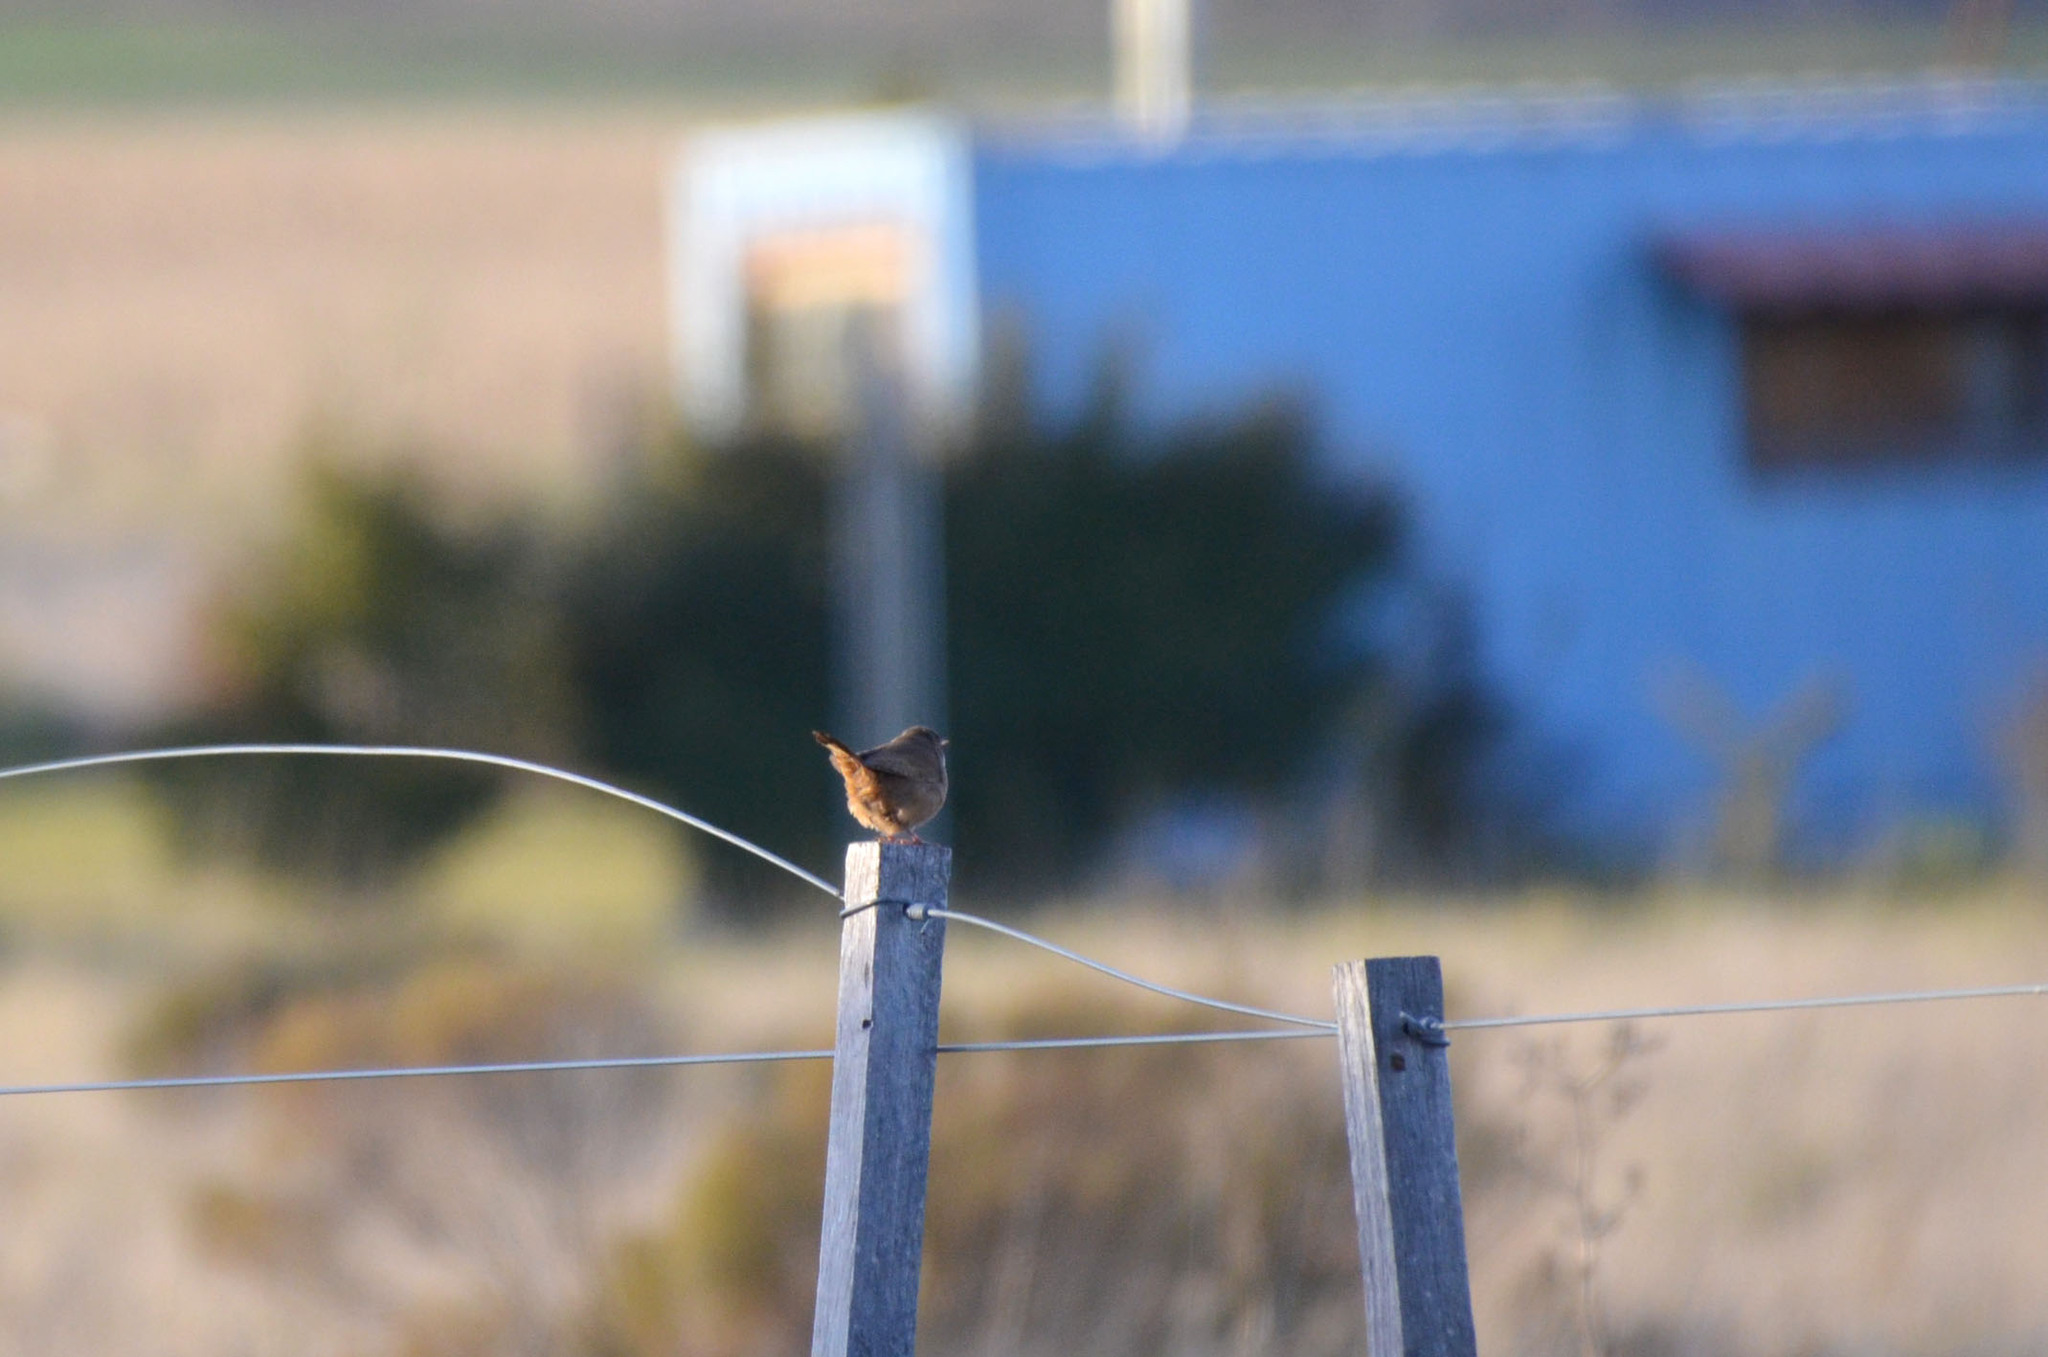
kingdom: Animalia
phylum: Chordata
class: Aves
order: Passeriformes
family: Troglodytidae
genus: Troglodytes
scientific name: Troglodytes aedon
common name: House wren
